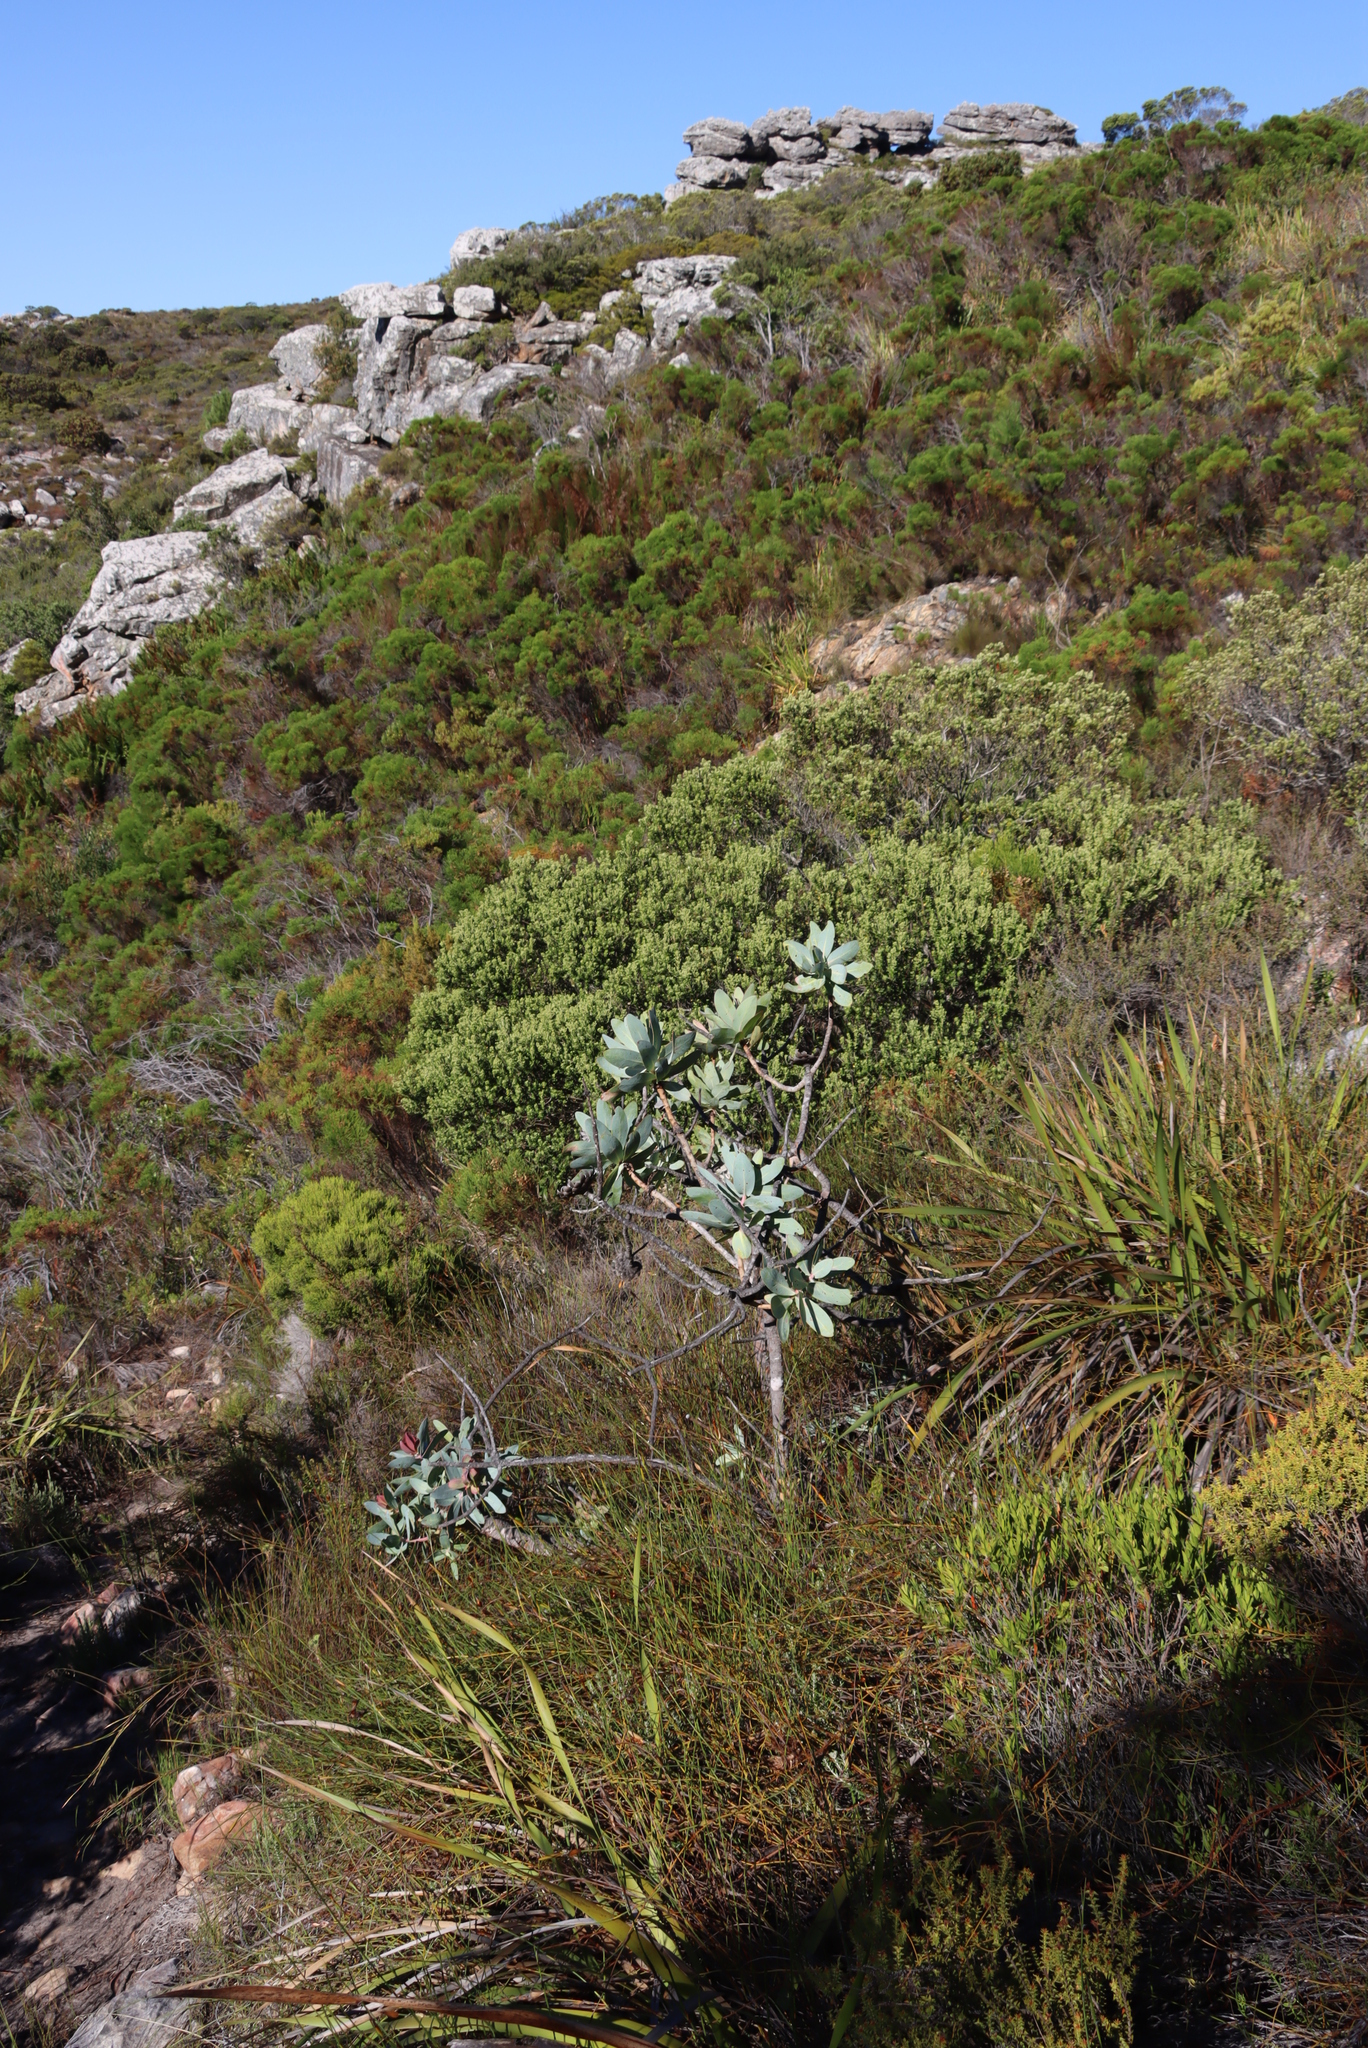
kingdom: Plantae
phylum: Tracheophyta
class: Magnoliopsida
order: Proteales
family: Proteaceae
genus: Protea
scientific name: Protea nitida
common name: Tree protea
